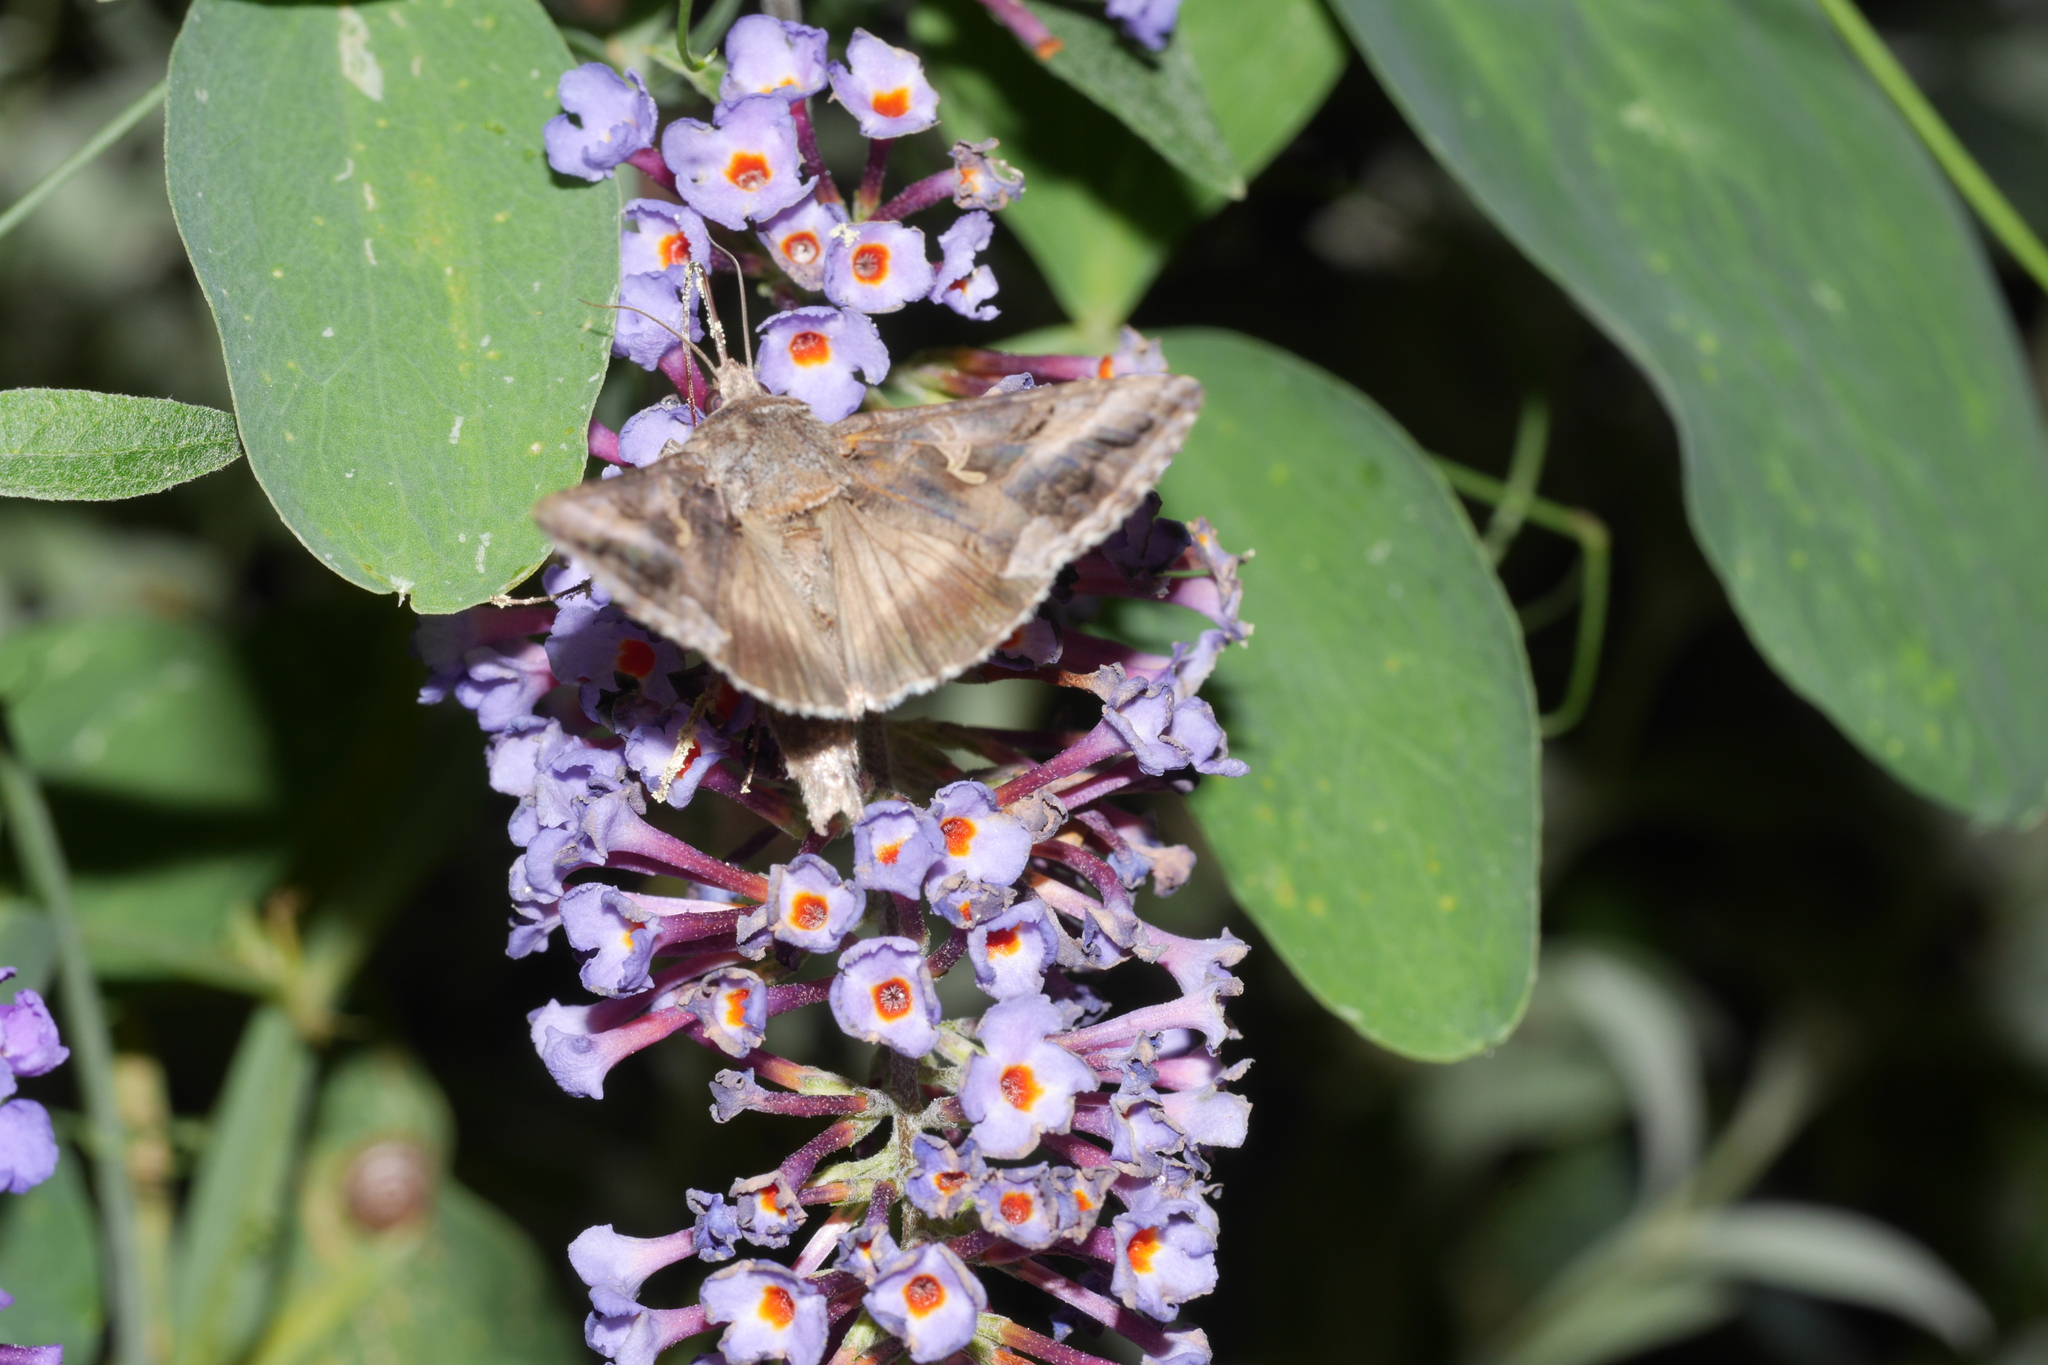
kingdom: Animalia
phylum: Arthropoda
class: Insecta
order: Lepidoptera
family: Noctuidae
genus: Autographa
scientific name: Autographa gamma
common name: Silver y
